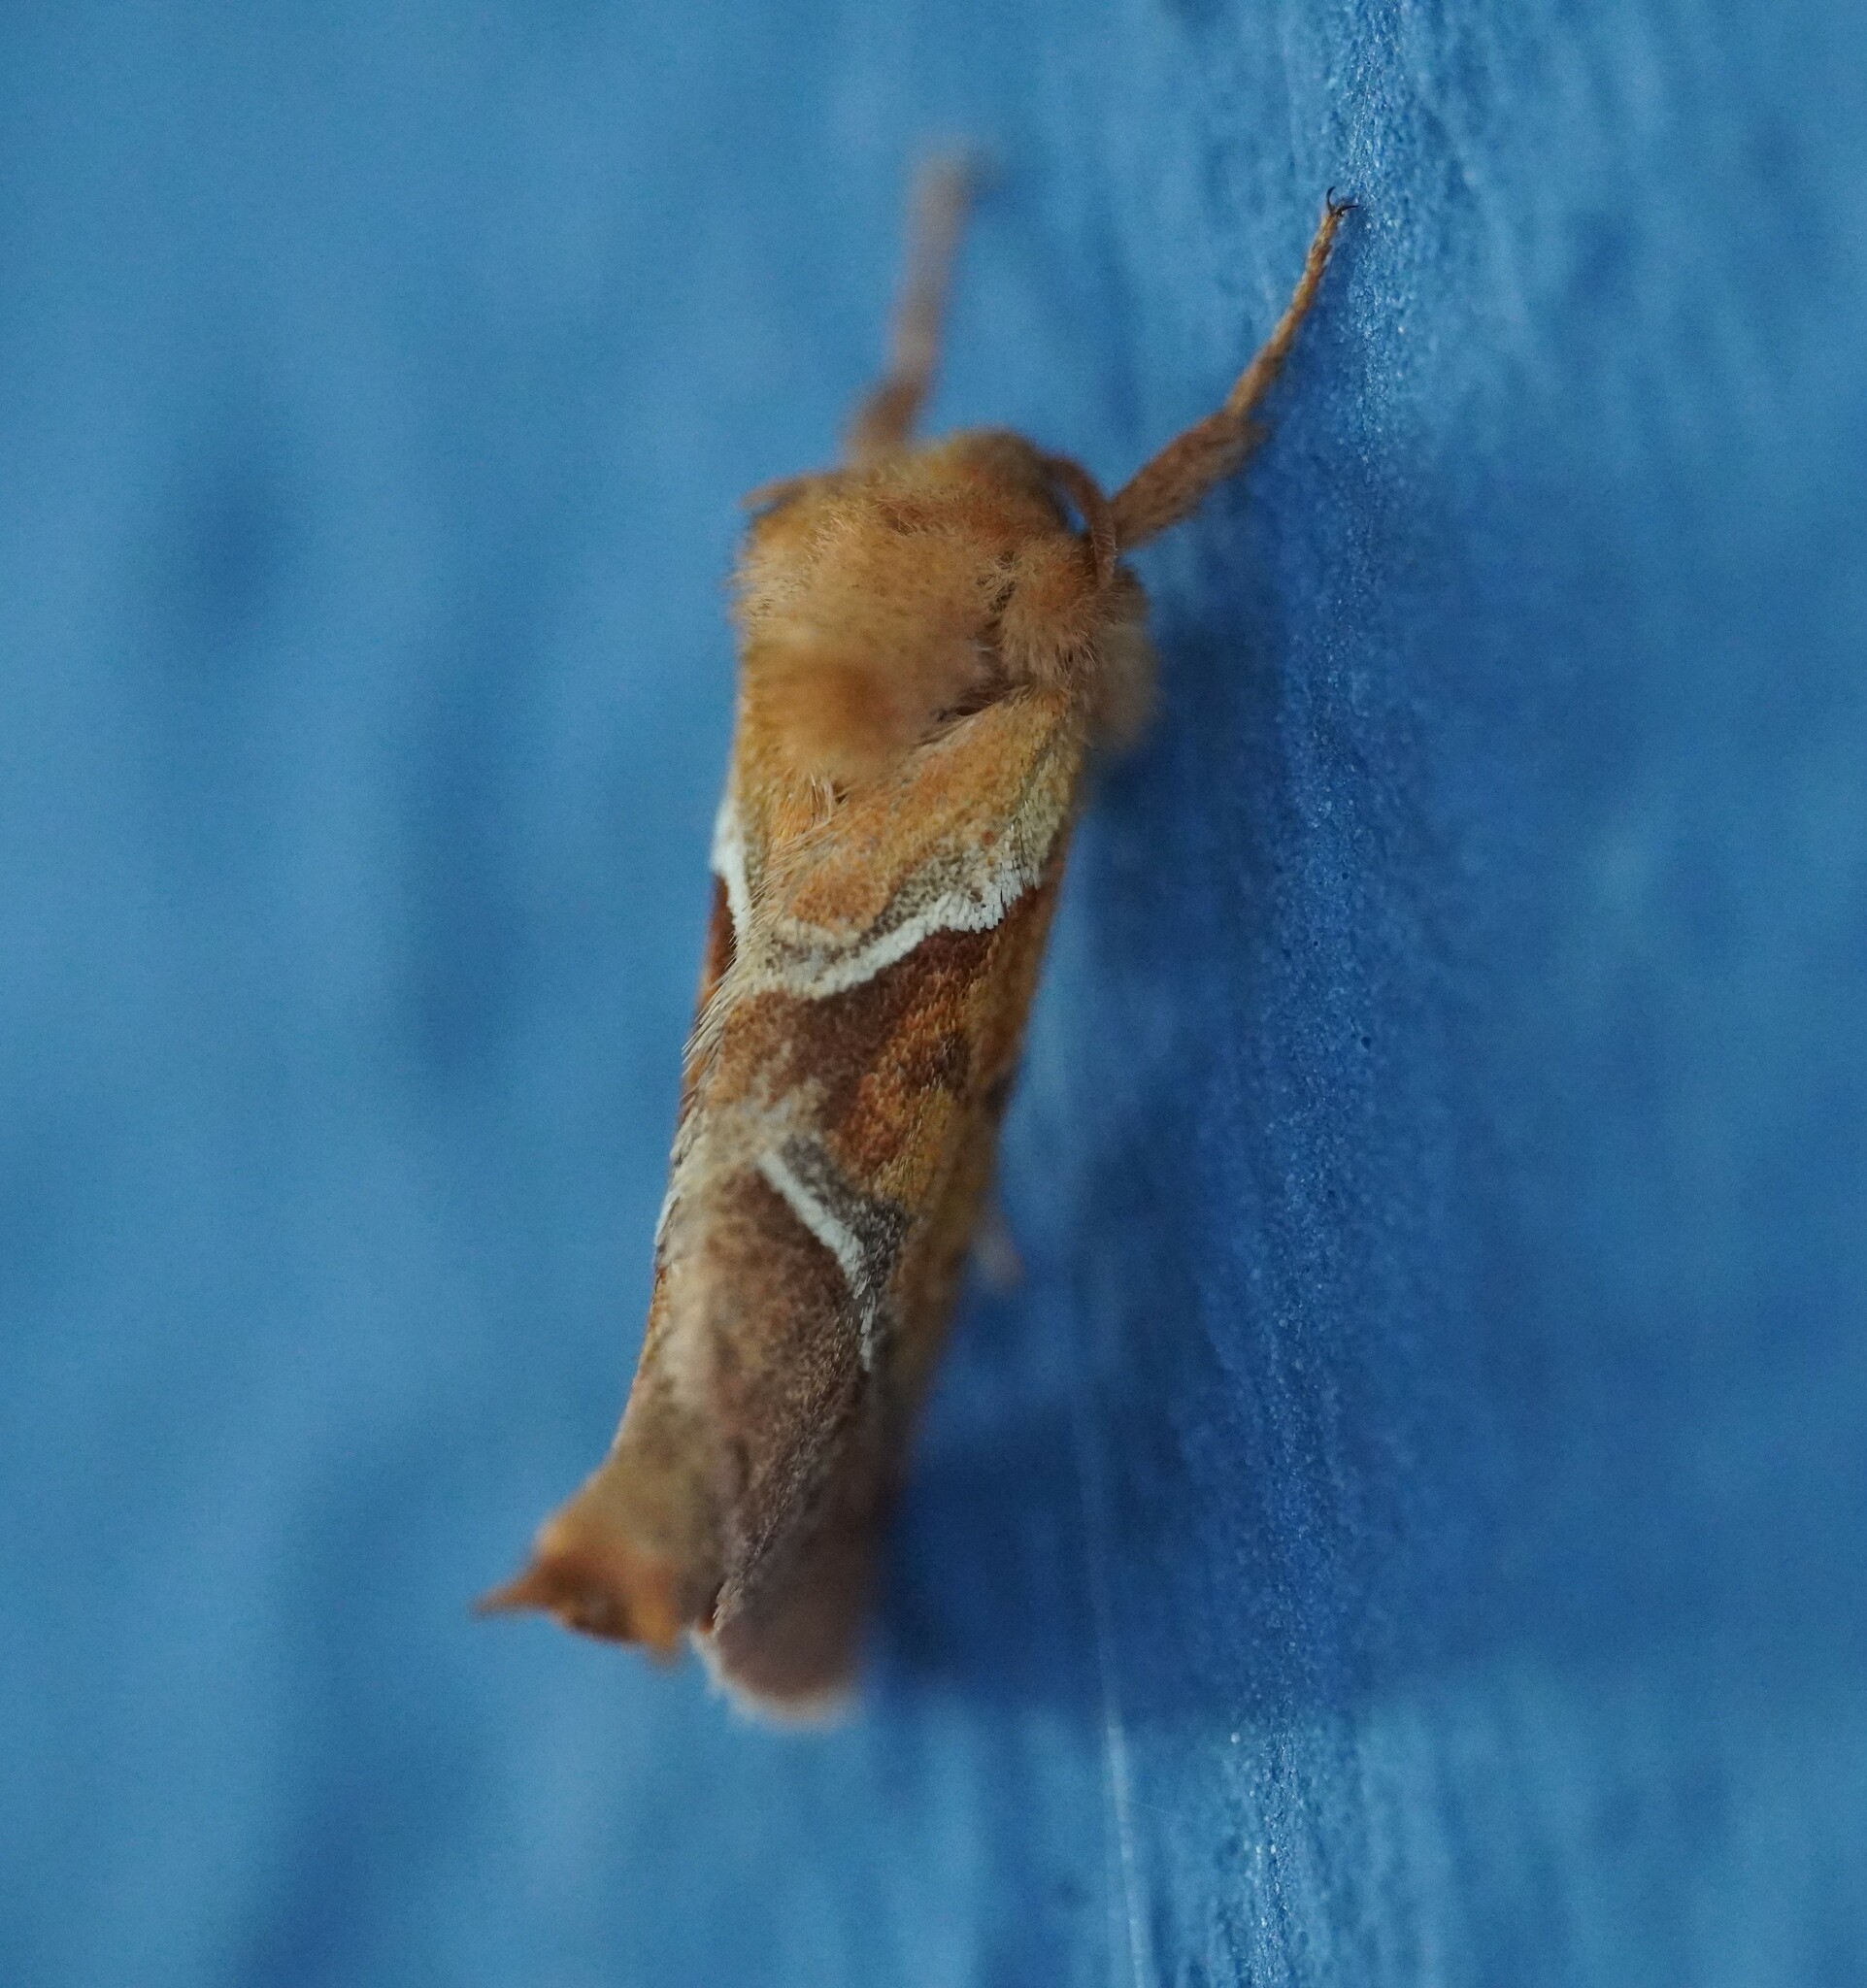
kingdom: Animalia
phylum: Arthropoda
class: Insecta
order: Lepidoptera
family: Hepialidae
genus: Triodia
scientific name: Triodia sylvina
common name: Orange swift
